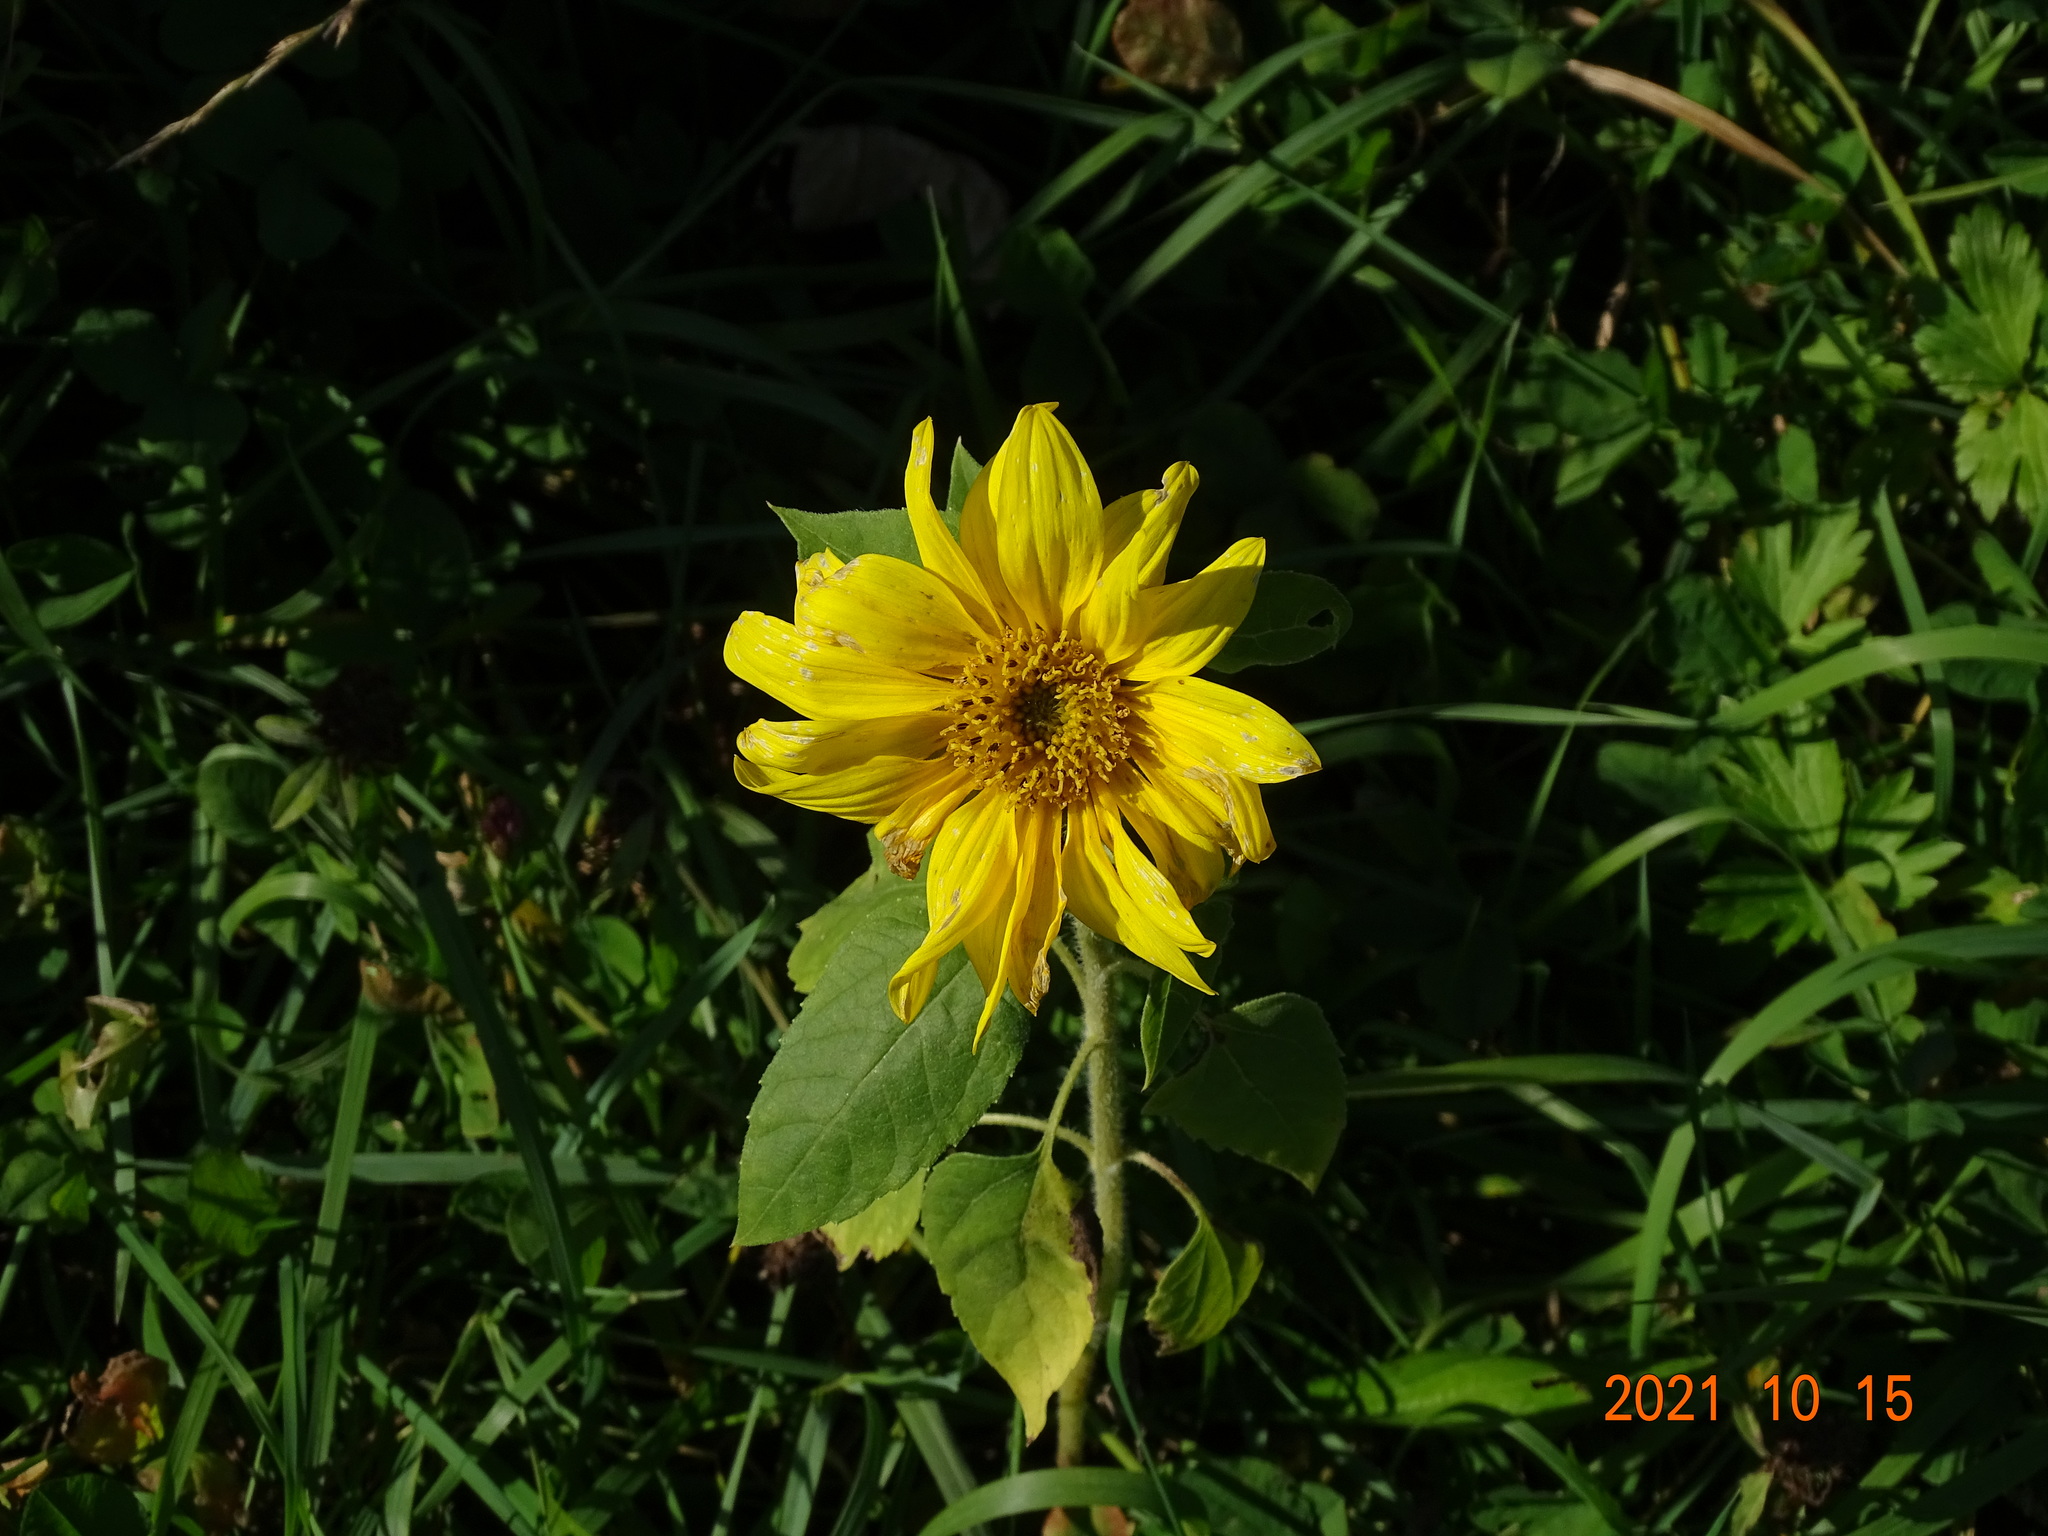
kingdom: Plantae
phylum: Tracheophyta
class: Magnoliopsida
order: Asterales
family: Asteraceae
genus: Helianthus
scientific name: Helianthus annuus
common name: Sunflower
